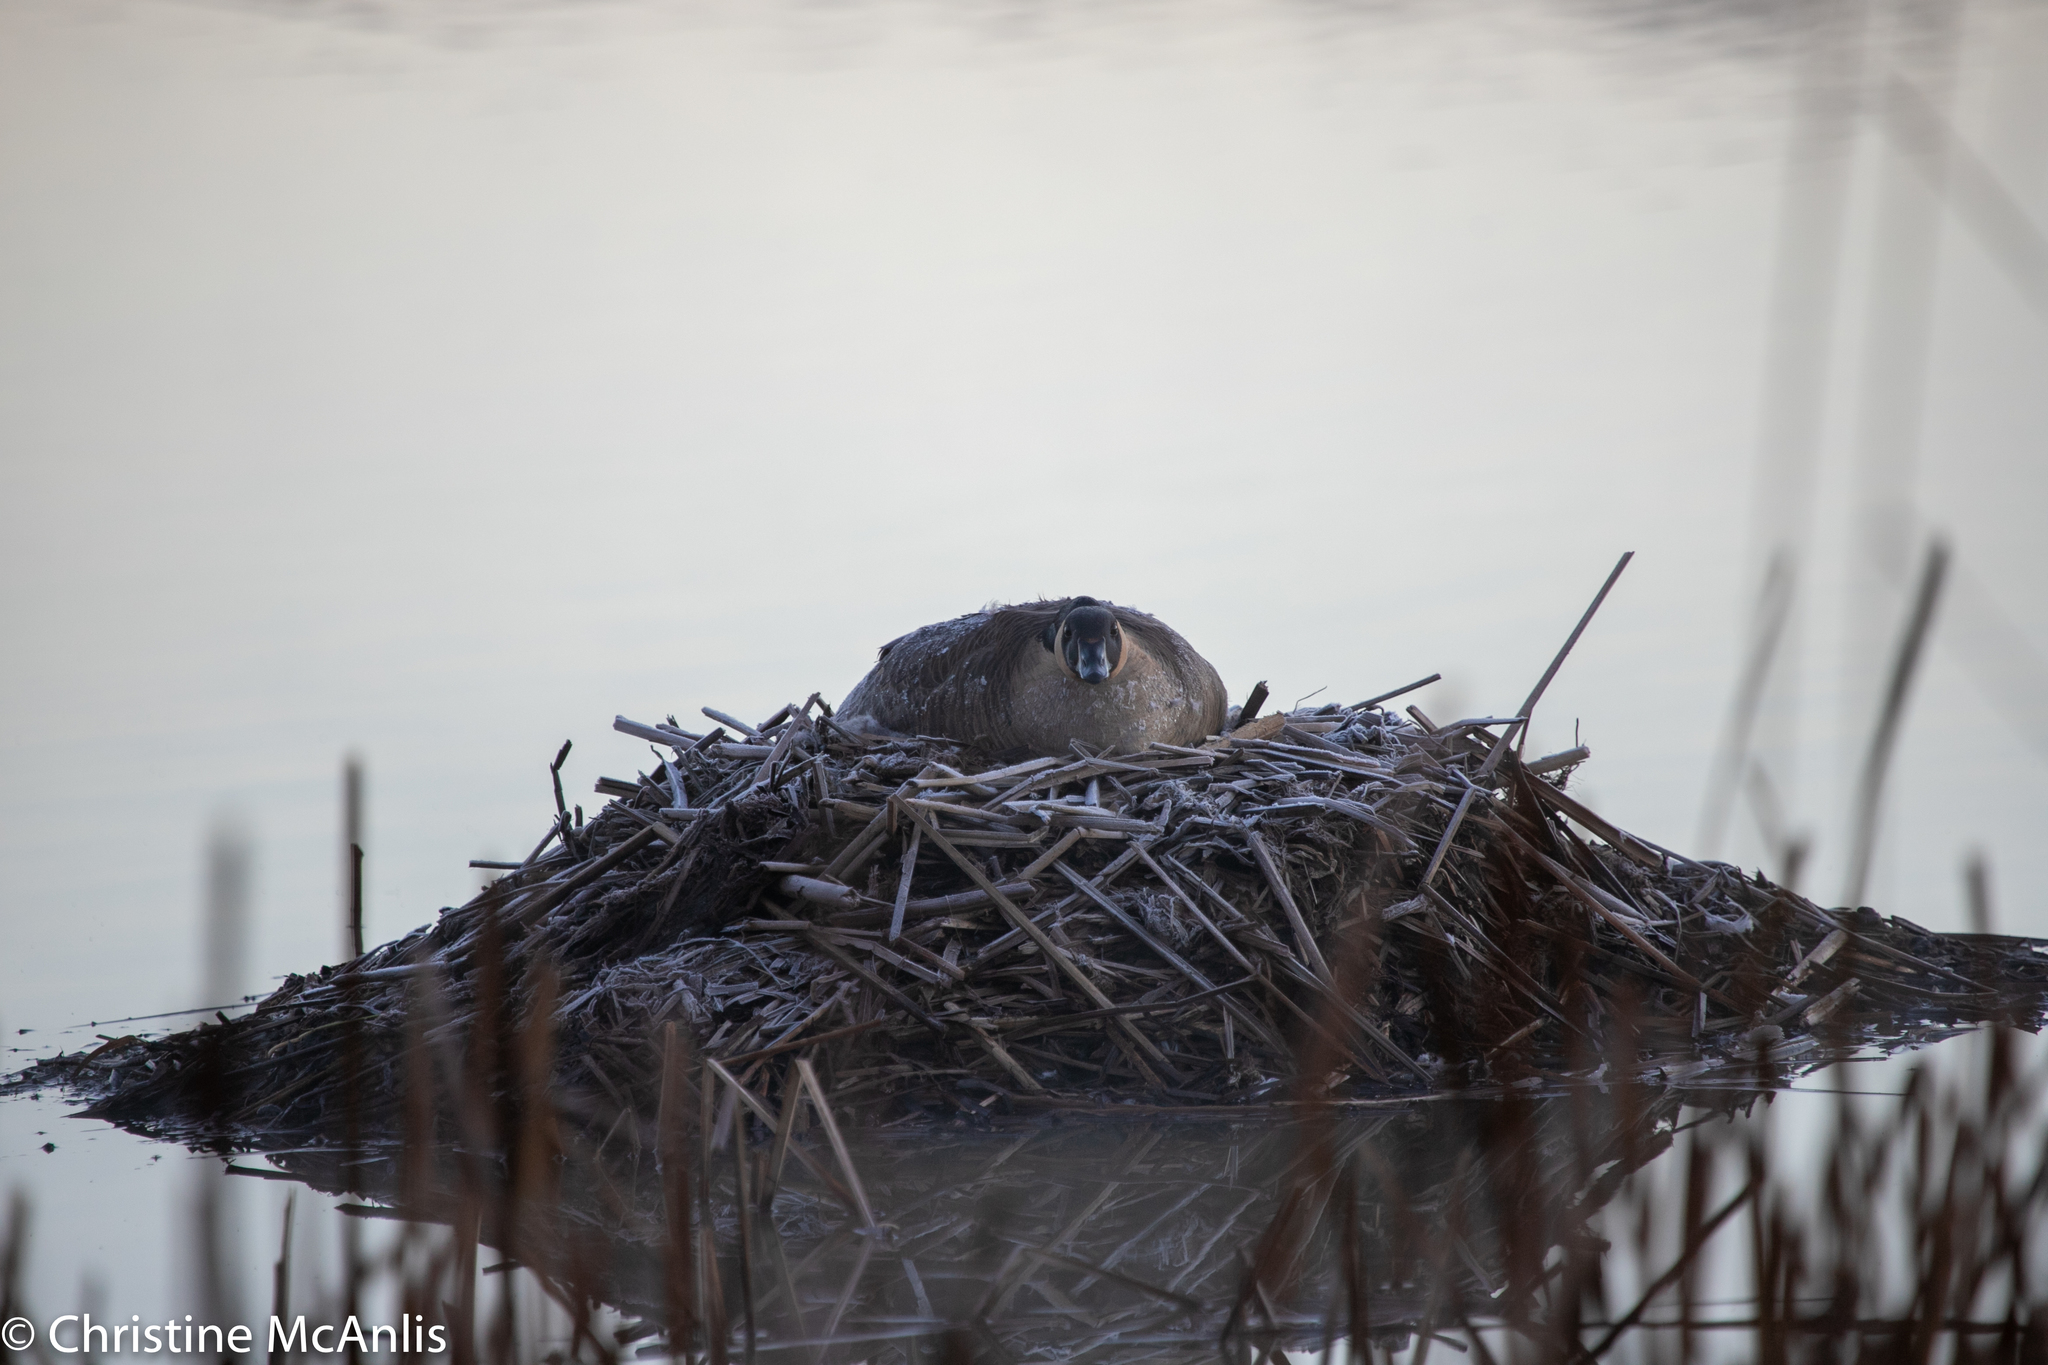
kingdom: Animalia
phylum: Chordata
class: Aves
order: Anseriformes
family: Anatidae
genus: Branta
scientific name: Branta canadensis
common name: Canada goose
